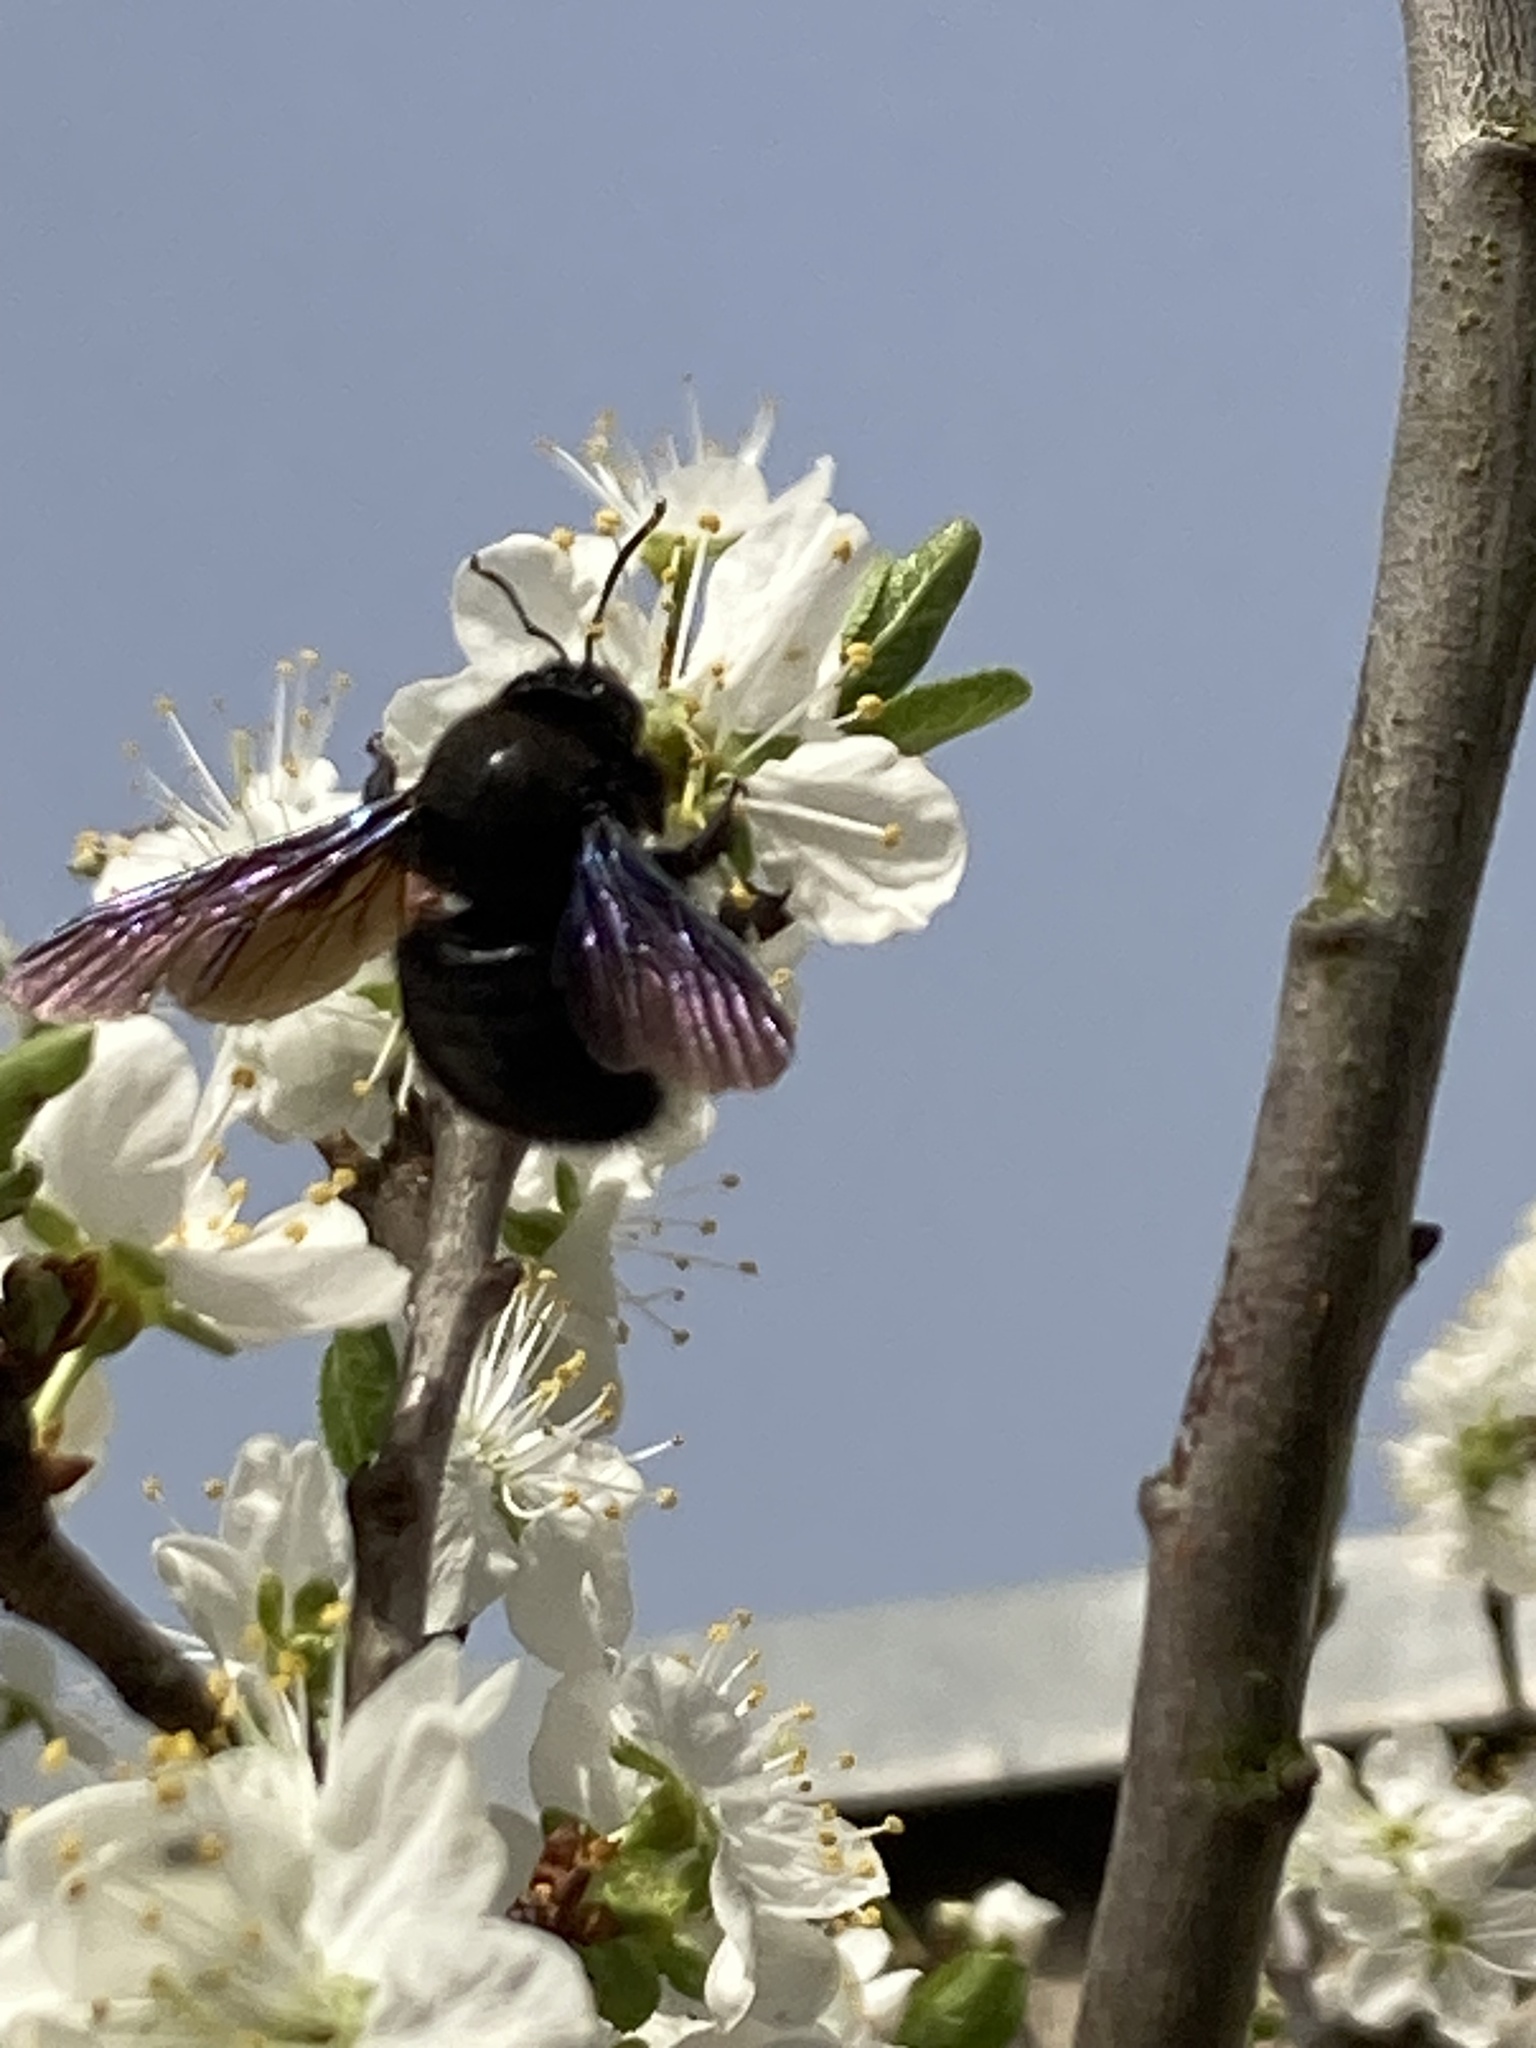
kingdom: Animalia
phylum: Arthropoda
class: Insecta
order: Hymenoptera
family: Apidae
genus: Xylocopa
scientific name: Xylocopa violacea
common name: Violet carpenter bee
